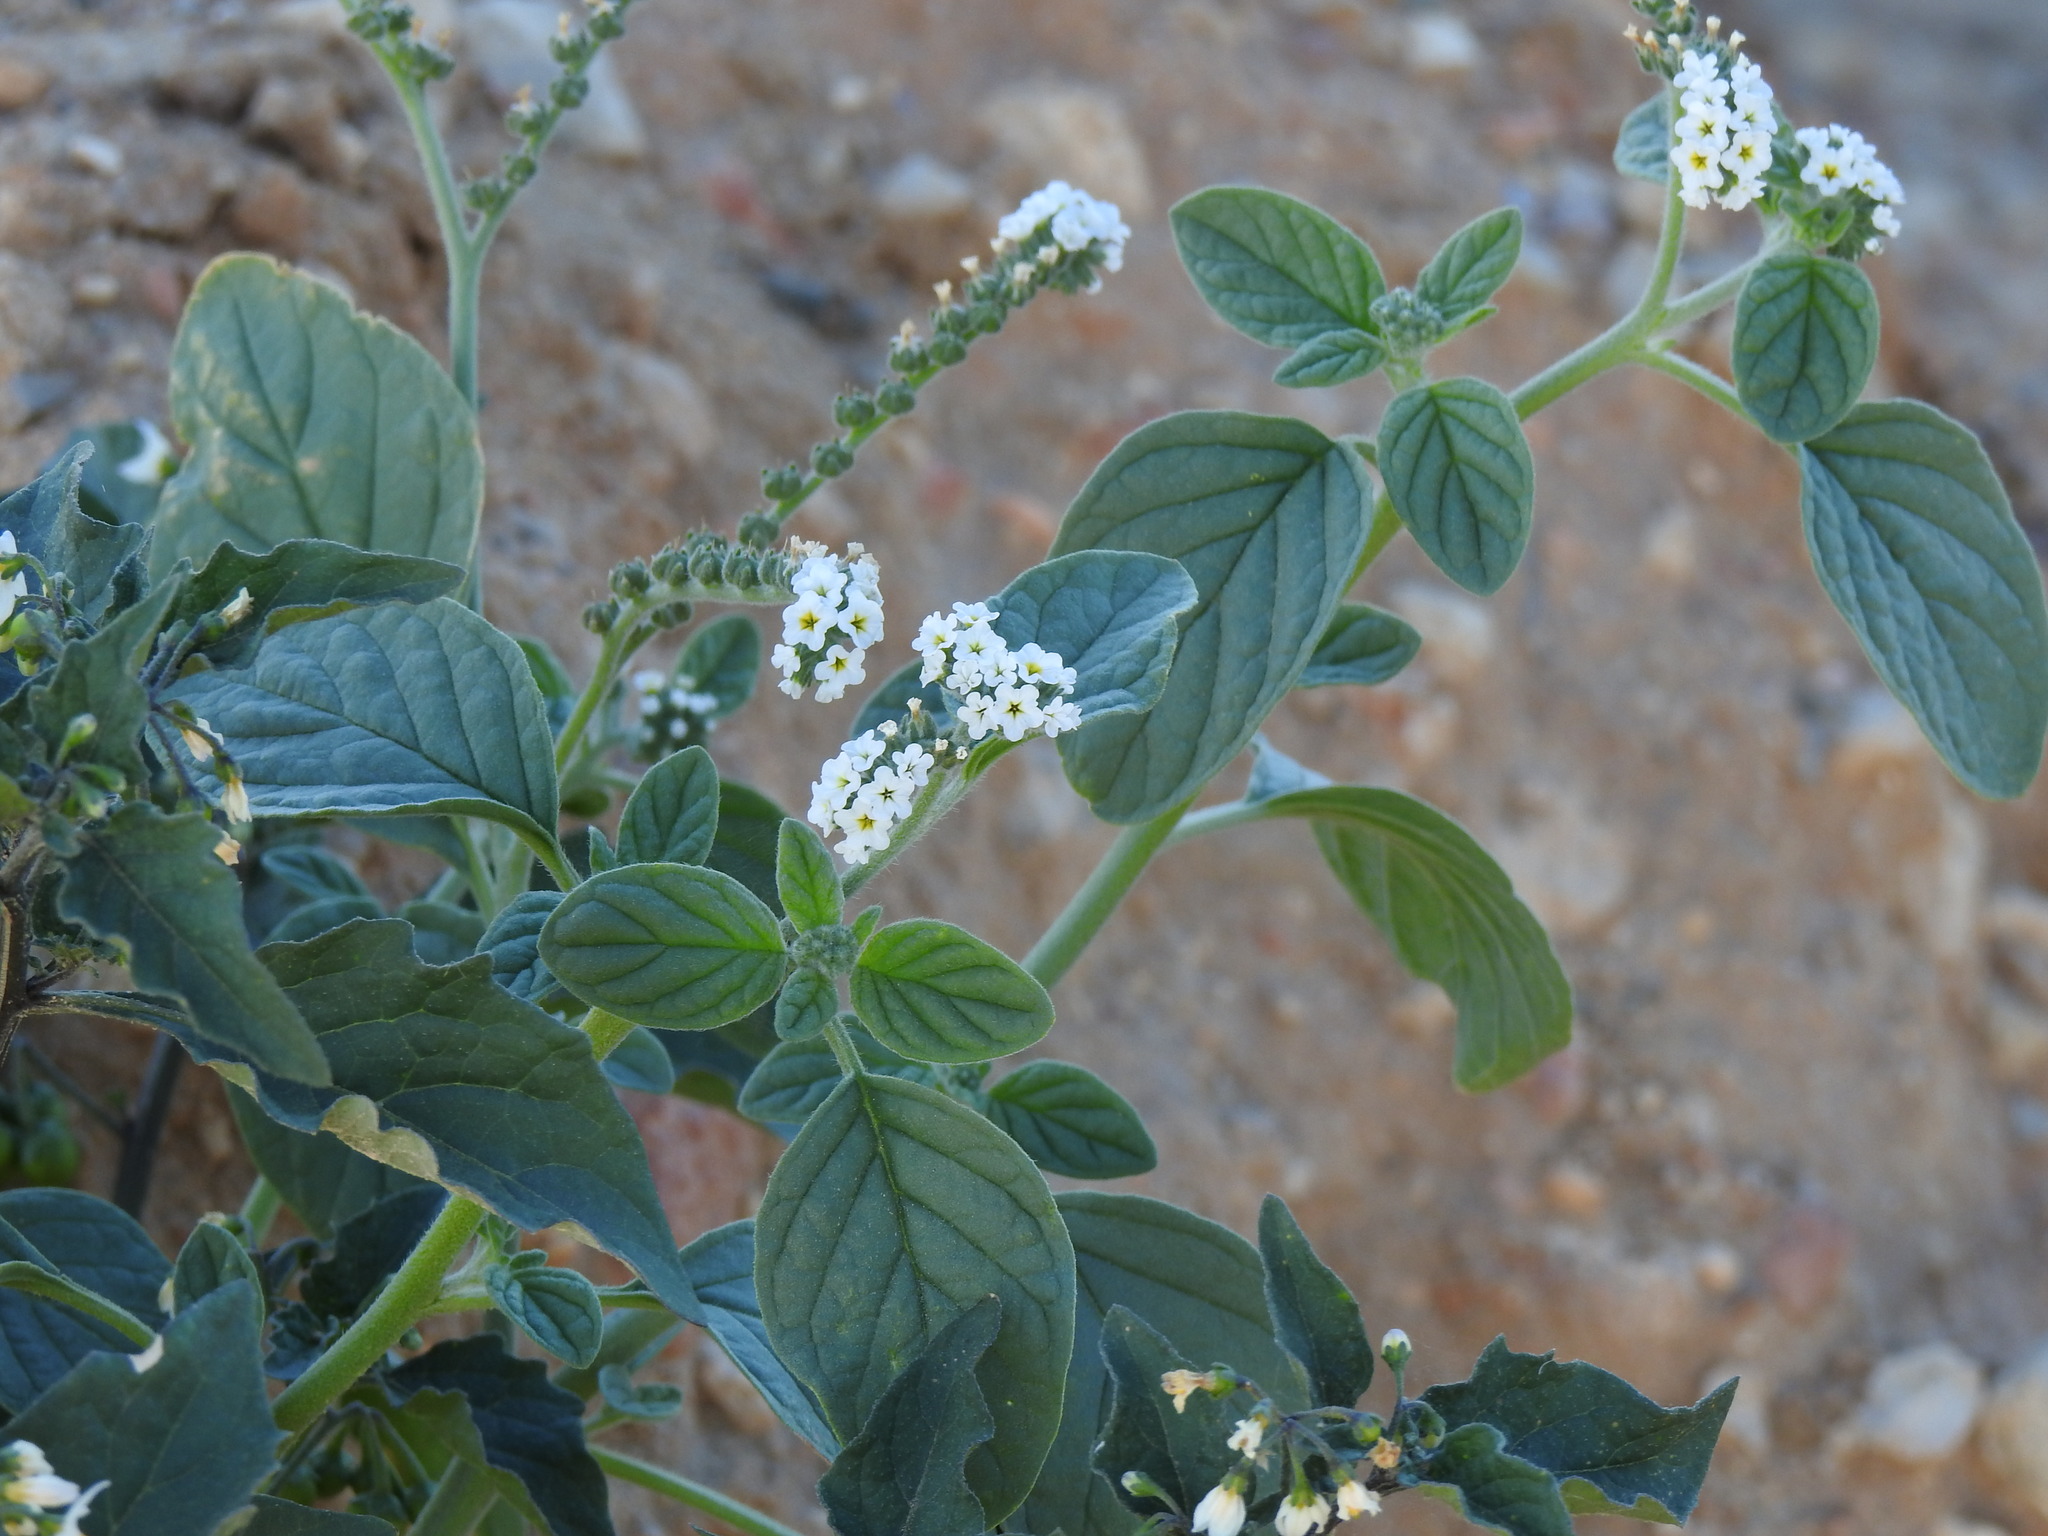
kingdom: Plantae
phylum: Tracheophyta
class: Magnoliopsida
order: Boraginales
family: Heliotropiaceae
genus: Heliotropium
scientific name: Heliotropium europaeum
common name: European heliotrope
